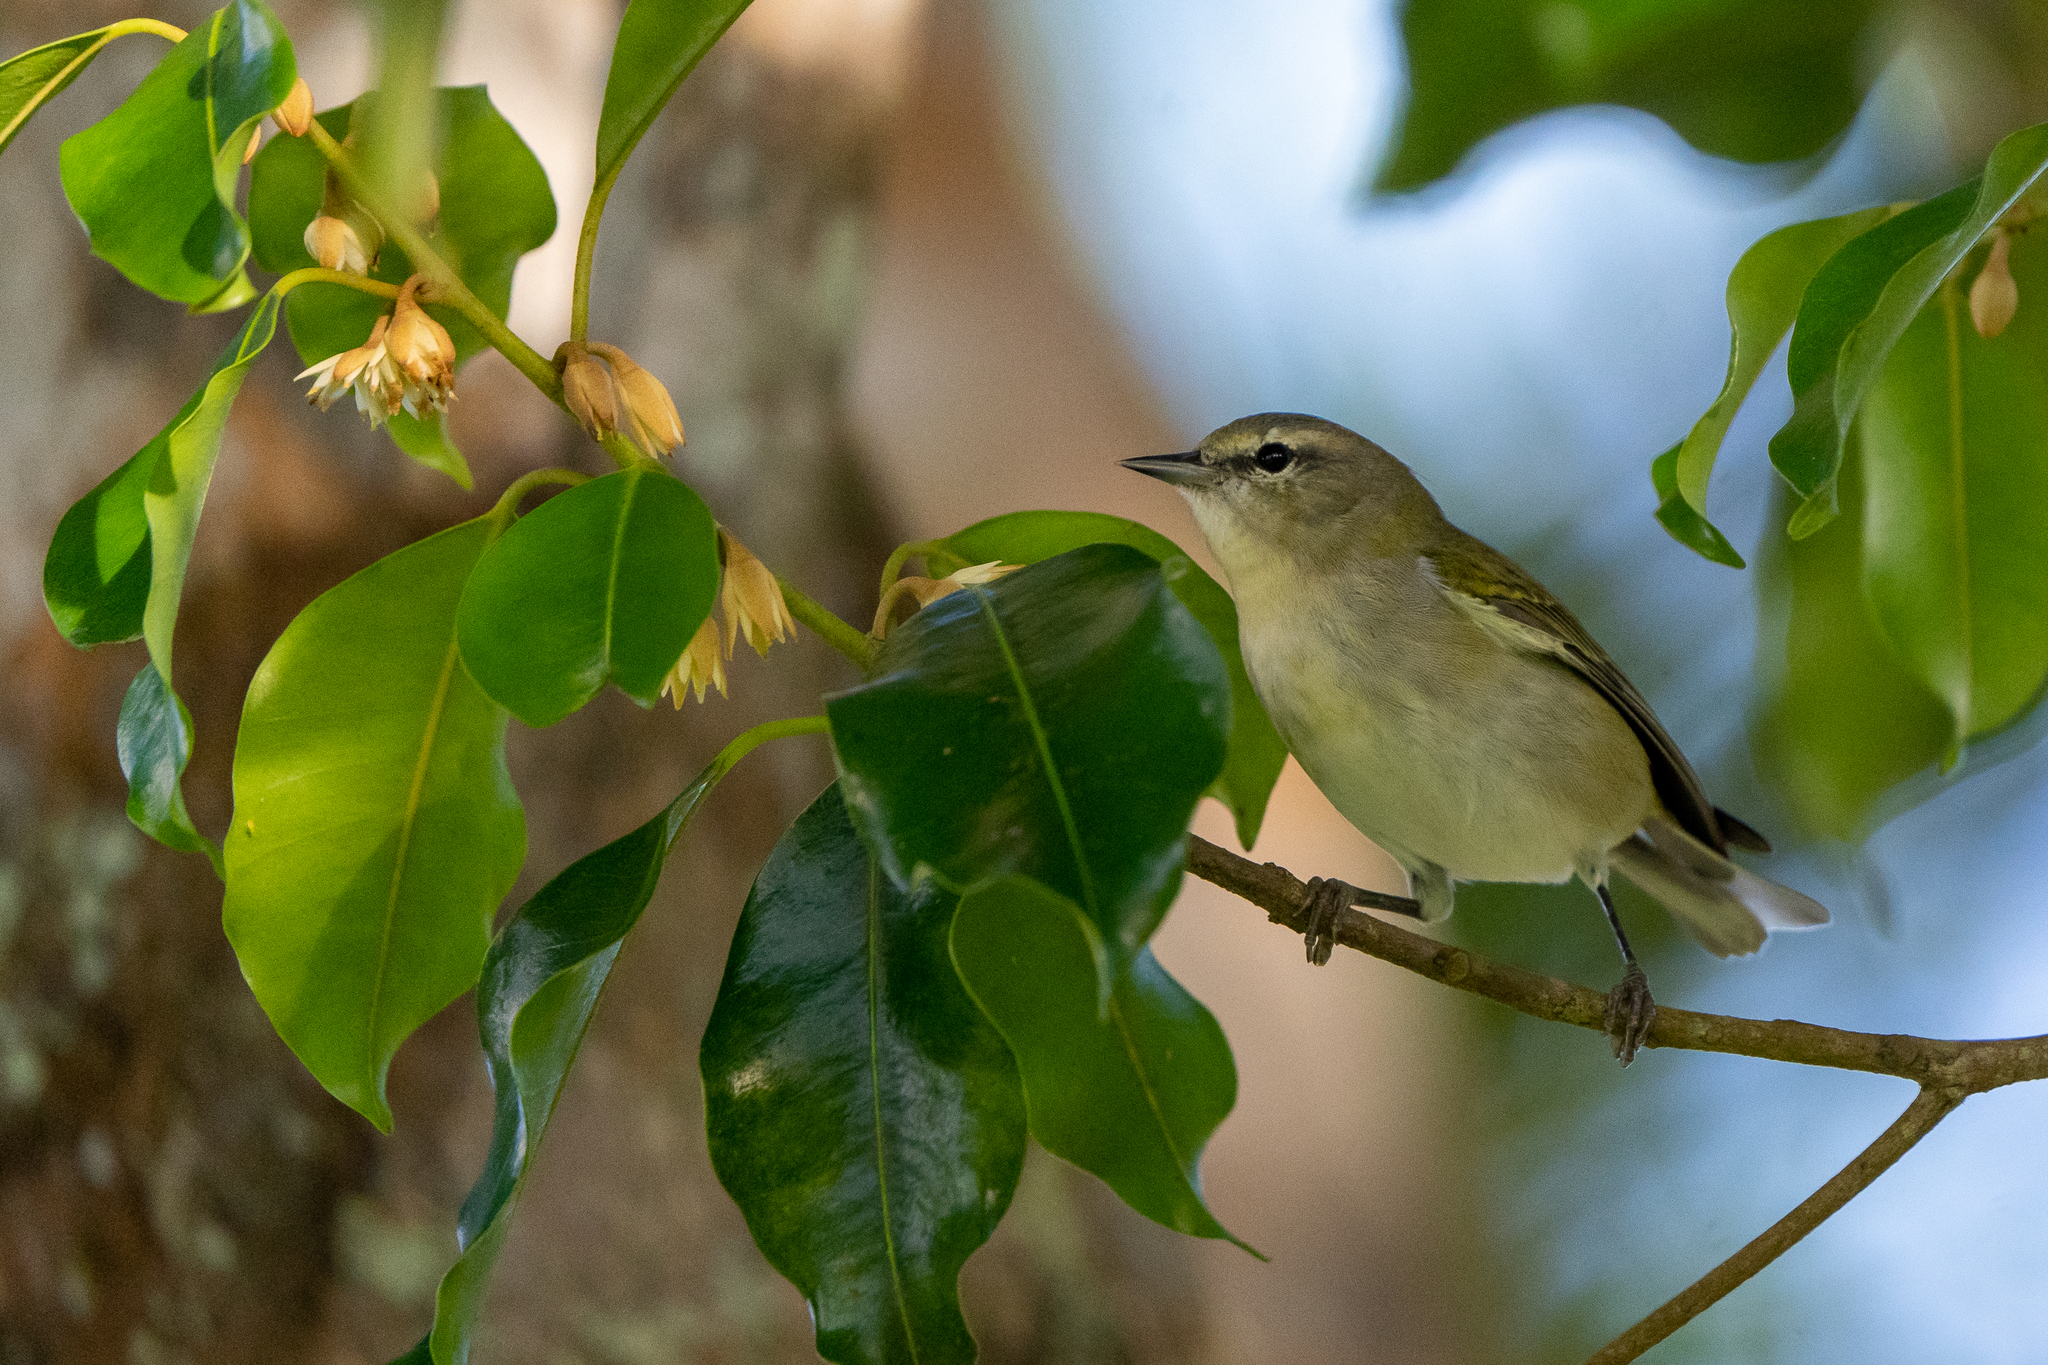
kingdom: Animalia
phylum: Chordata
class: Aves
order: Passeriformes
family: Parulidae
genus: Leiothlypis
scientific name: Leiothlypis peregrina
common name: Tennessee warbler
